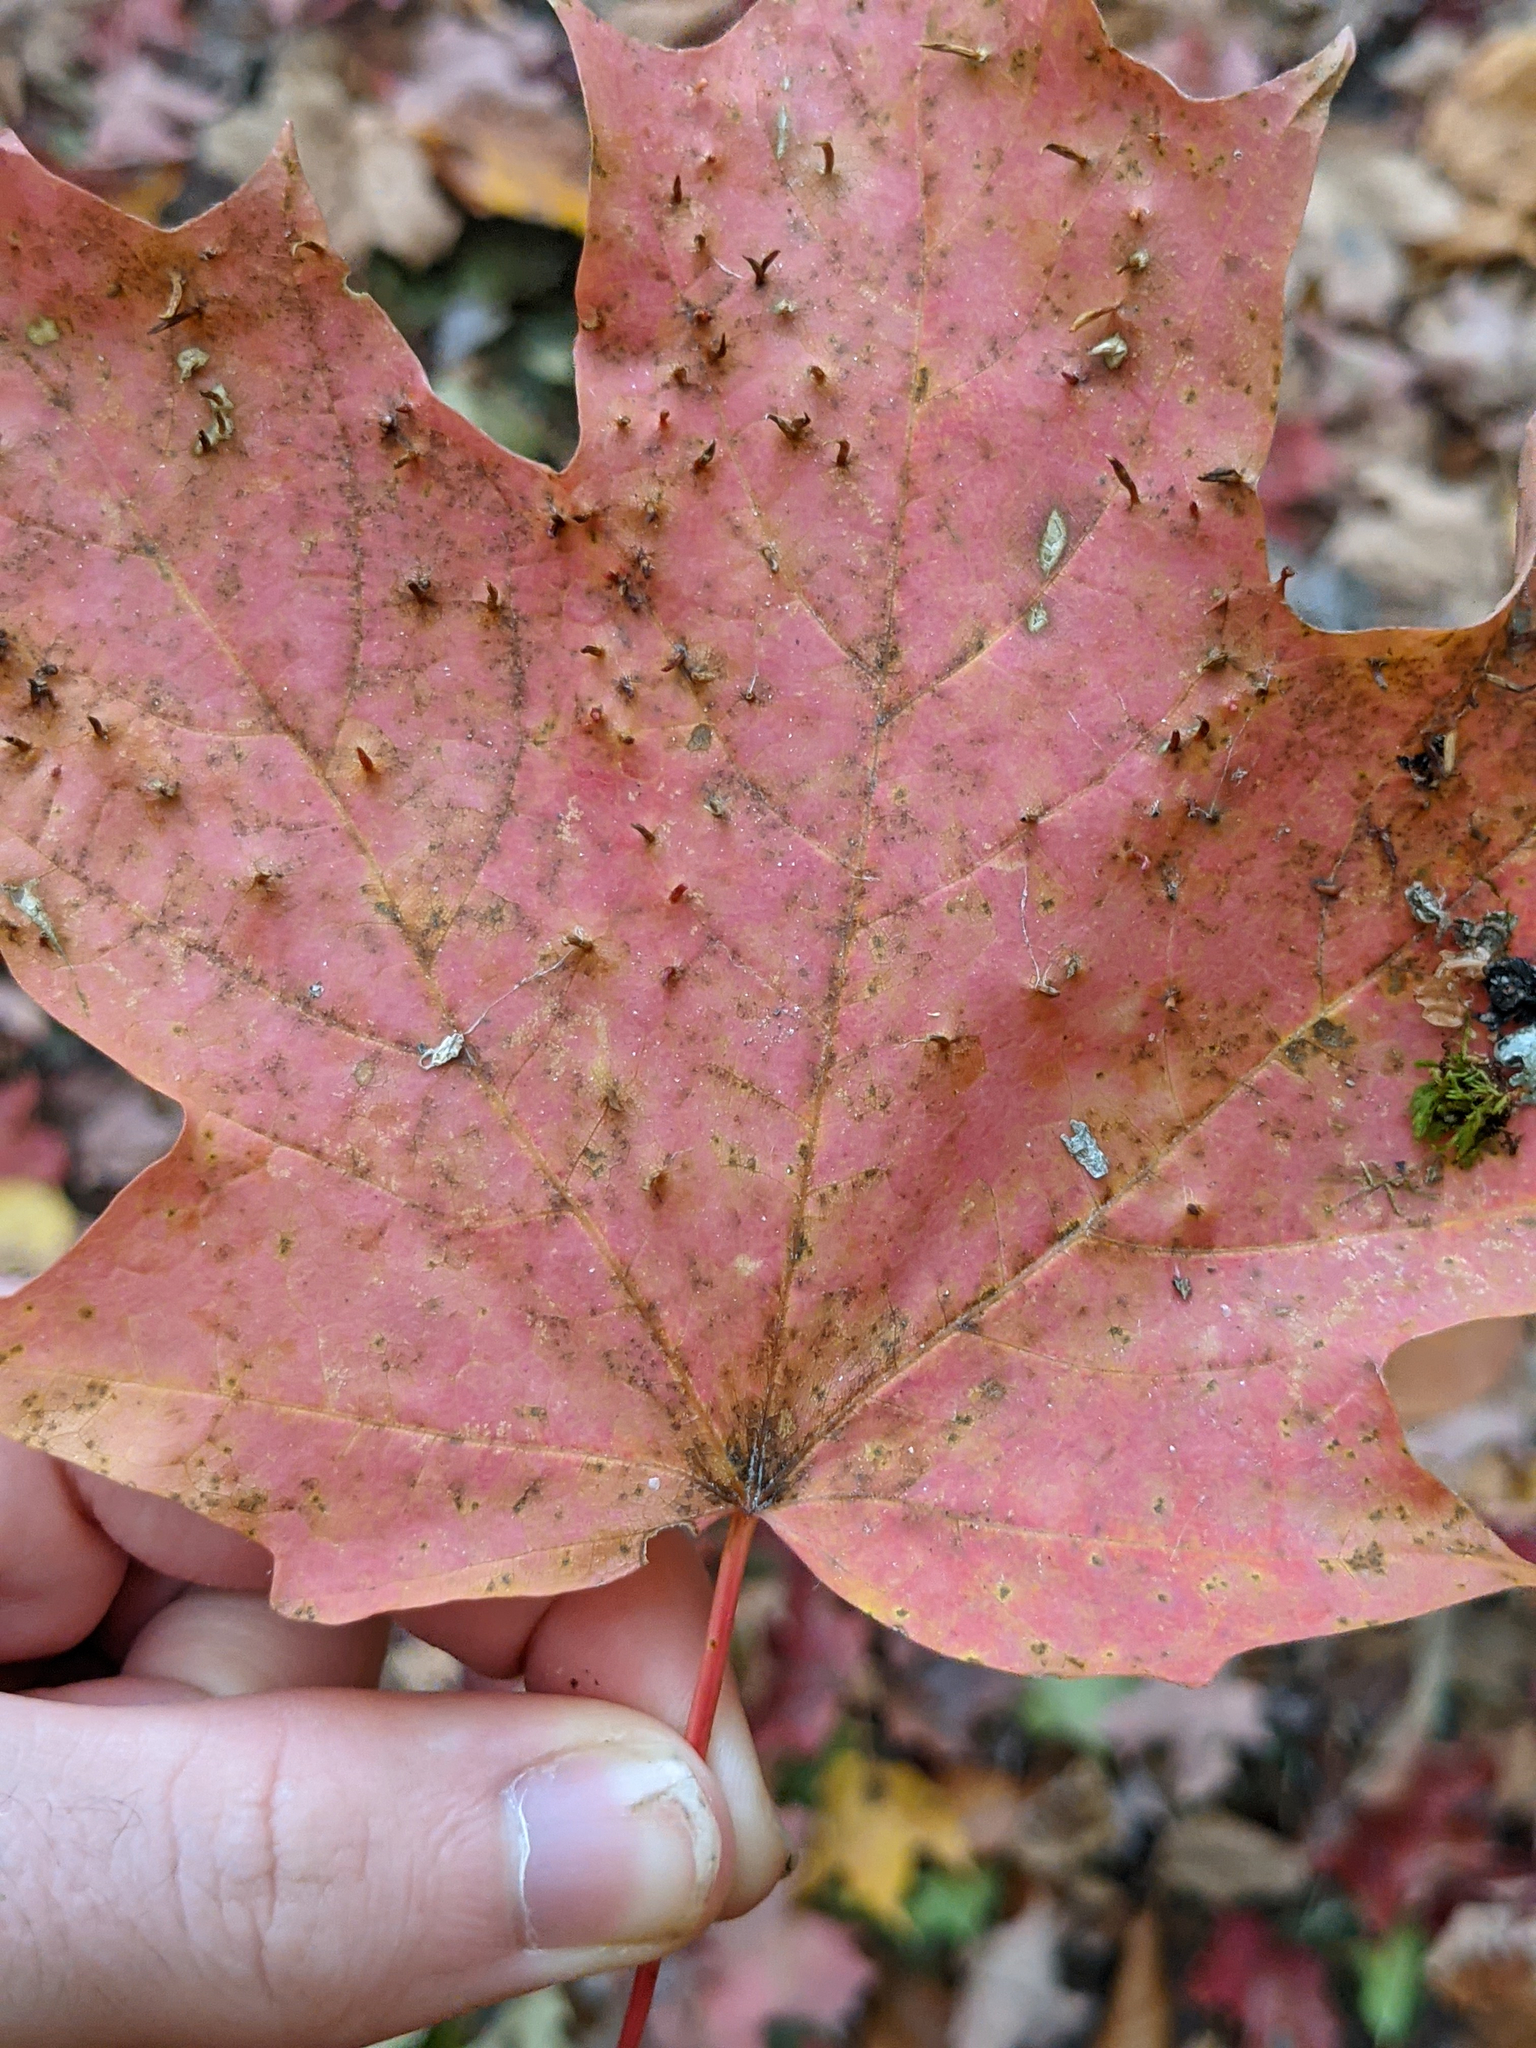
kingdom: Plantae
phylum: Tracheophyta
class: Magnoliopsida
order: Sapindales
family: Sapindaceae
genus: Acer
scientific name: Acer saccharum
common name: Sugar maple
